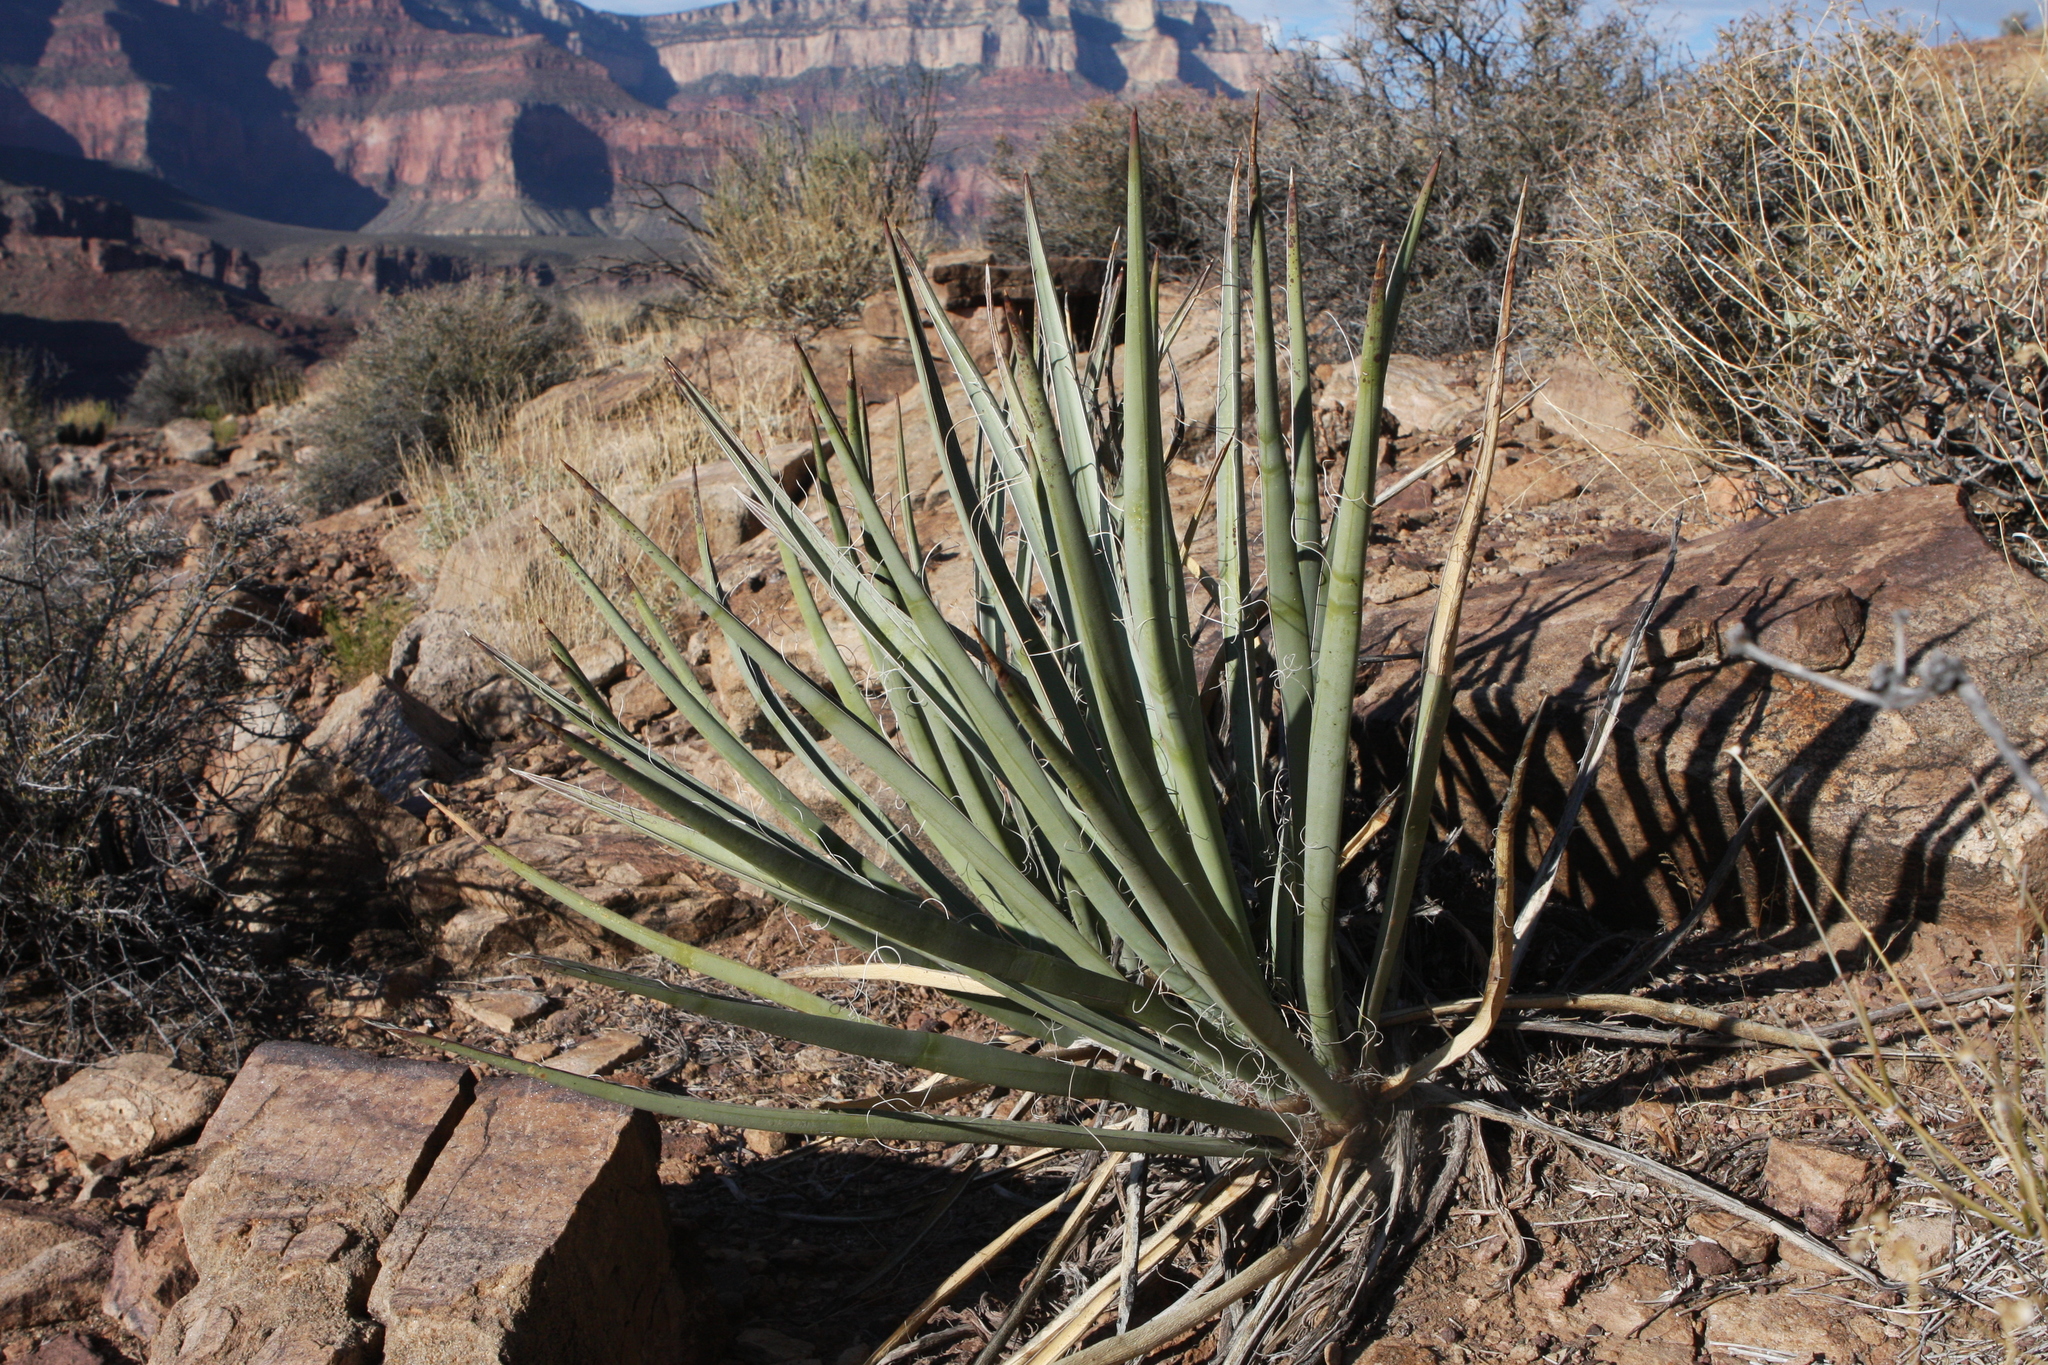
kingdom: Plantae
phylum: Tracheophyta
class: Liliopsida
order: Asparagales
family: Asparagaceae
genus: Yucca
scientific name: Yucca baccata
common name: Banana yucca
